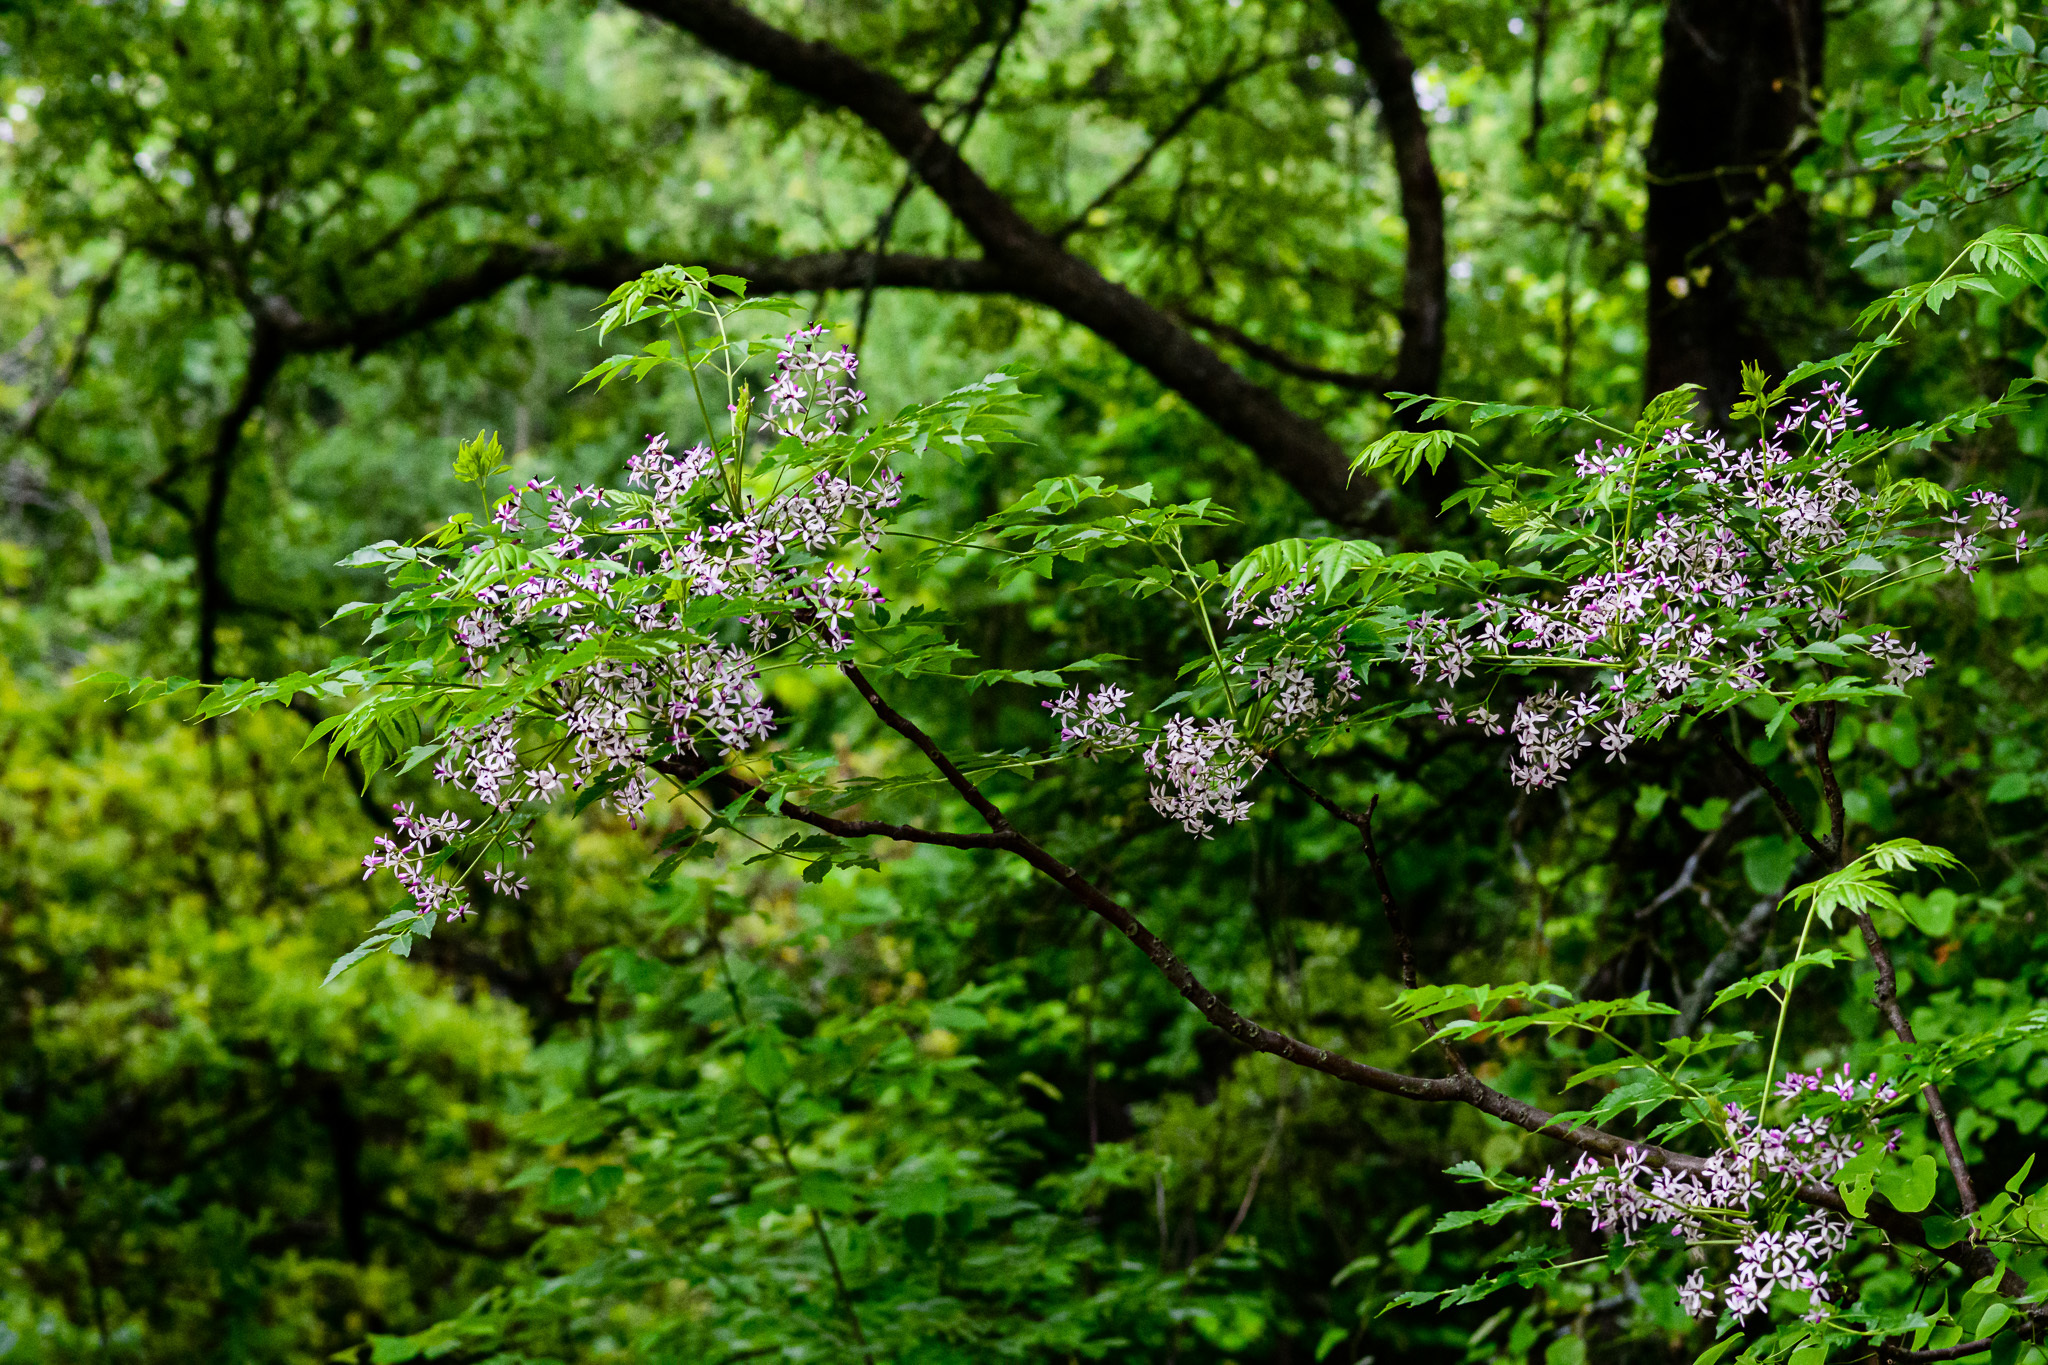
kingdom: Plantae
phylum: Tracheophyta
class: Magnoliopsida
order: Sapindales
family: Meliaceae
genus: Melia
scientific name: Melia azedarach
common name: Chinaberrytree
